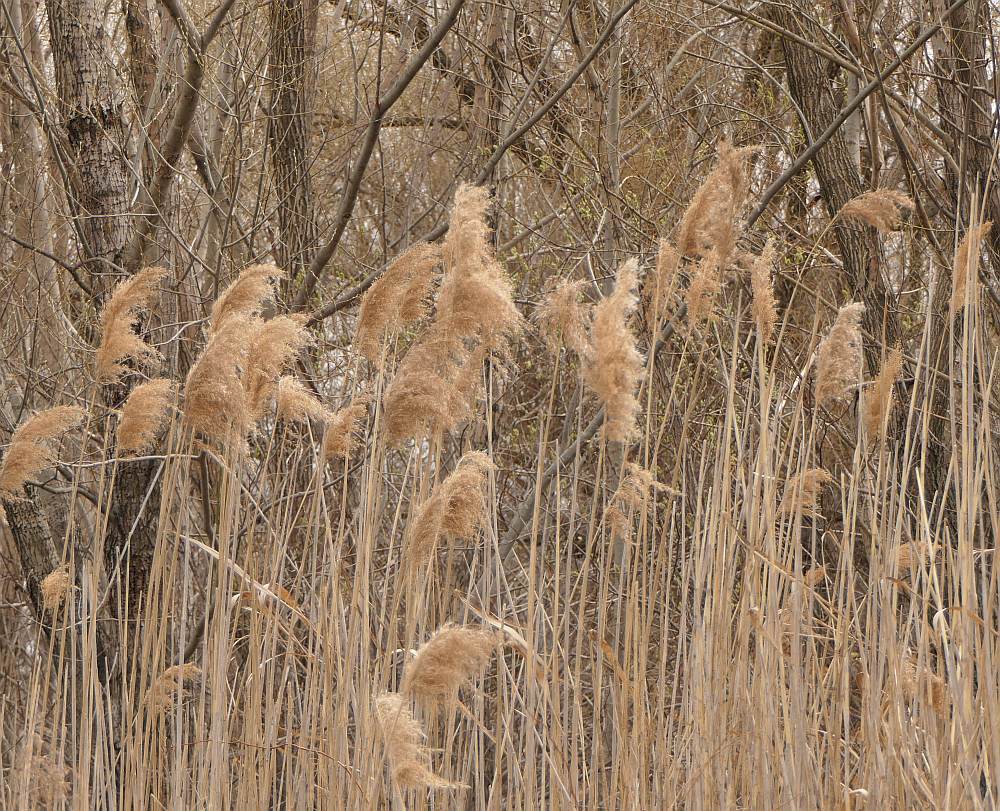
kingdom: Plantae
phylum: Tracheophyta
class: Liliopsida
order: Poales
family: Poaceae
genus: Phragmites
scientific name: Phragmites australis
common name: Common reed
